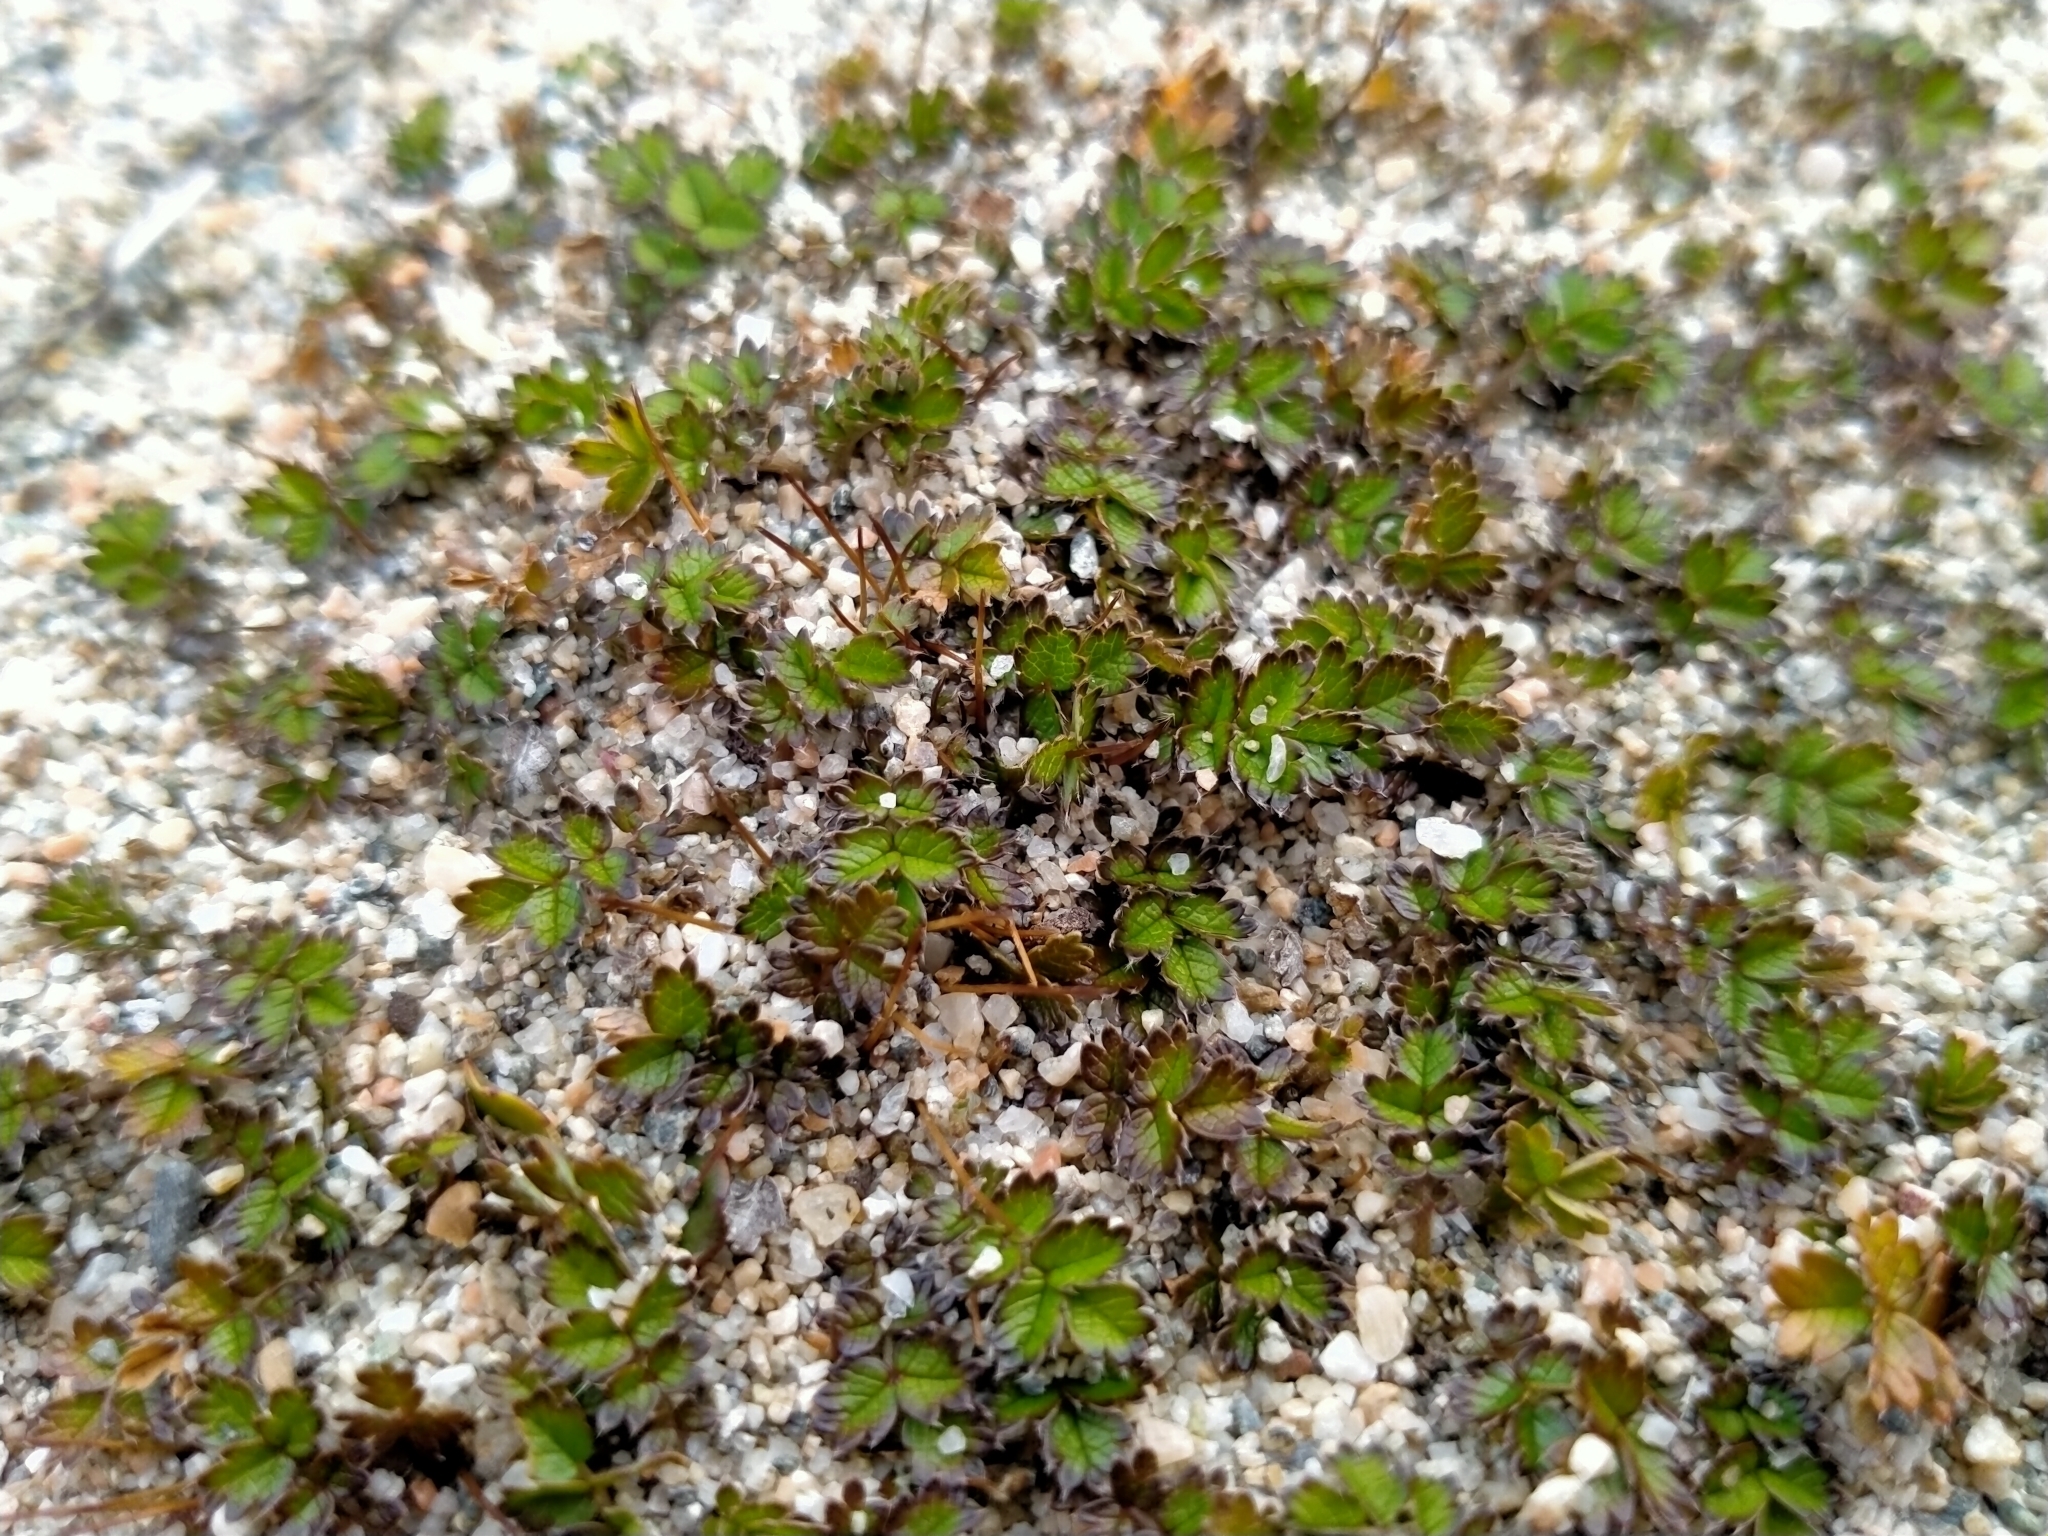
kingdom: Plantae
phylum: Tracheophyta
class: Magnoliopsida
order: Rosales
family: Rosaceae
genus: Acaena
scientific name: Acaena microphylla
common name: New zealand-bur
